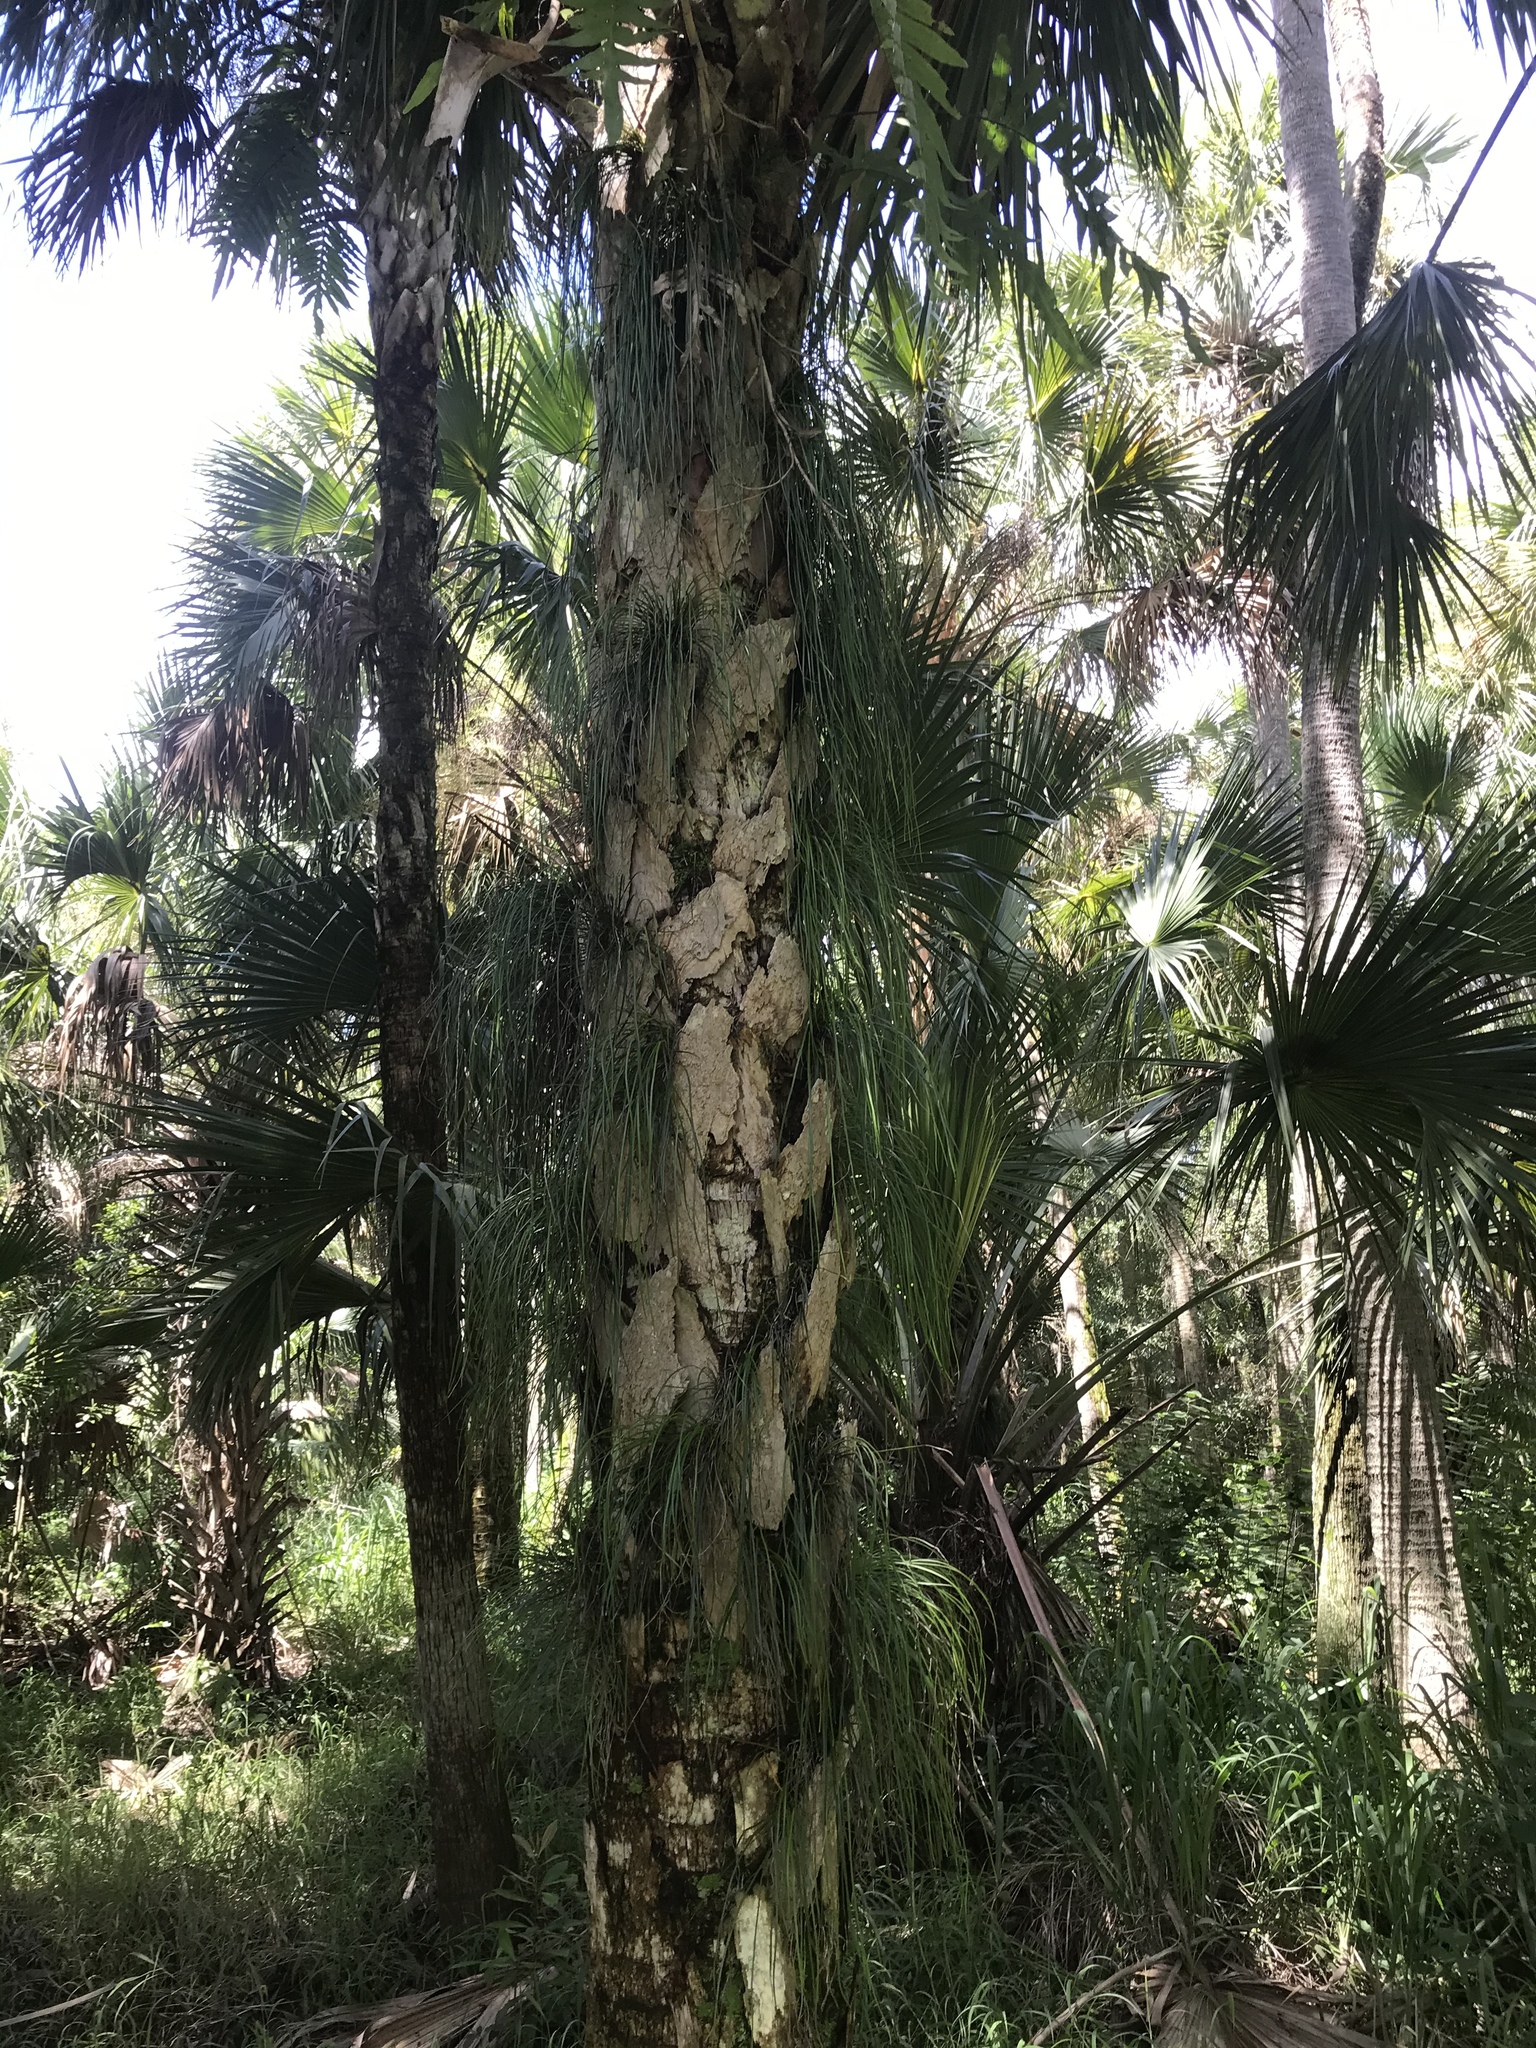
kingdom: Plantae
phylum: Tracheophyta
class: Polypodiopsida
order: Polypodiales
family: Pteridaceae
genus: Vittaria
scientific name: Vittaria lineata
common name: Shoestring fern
